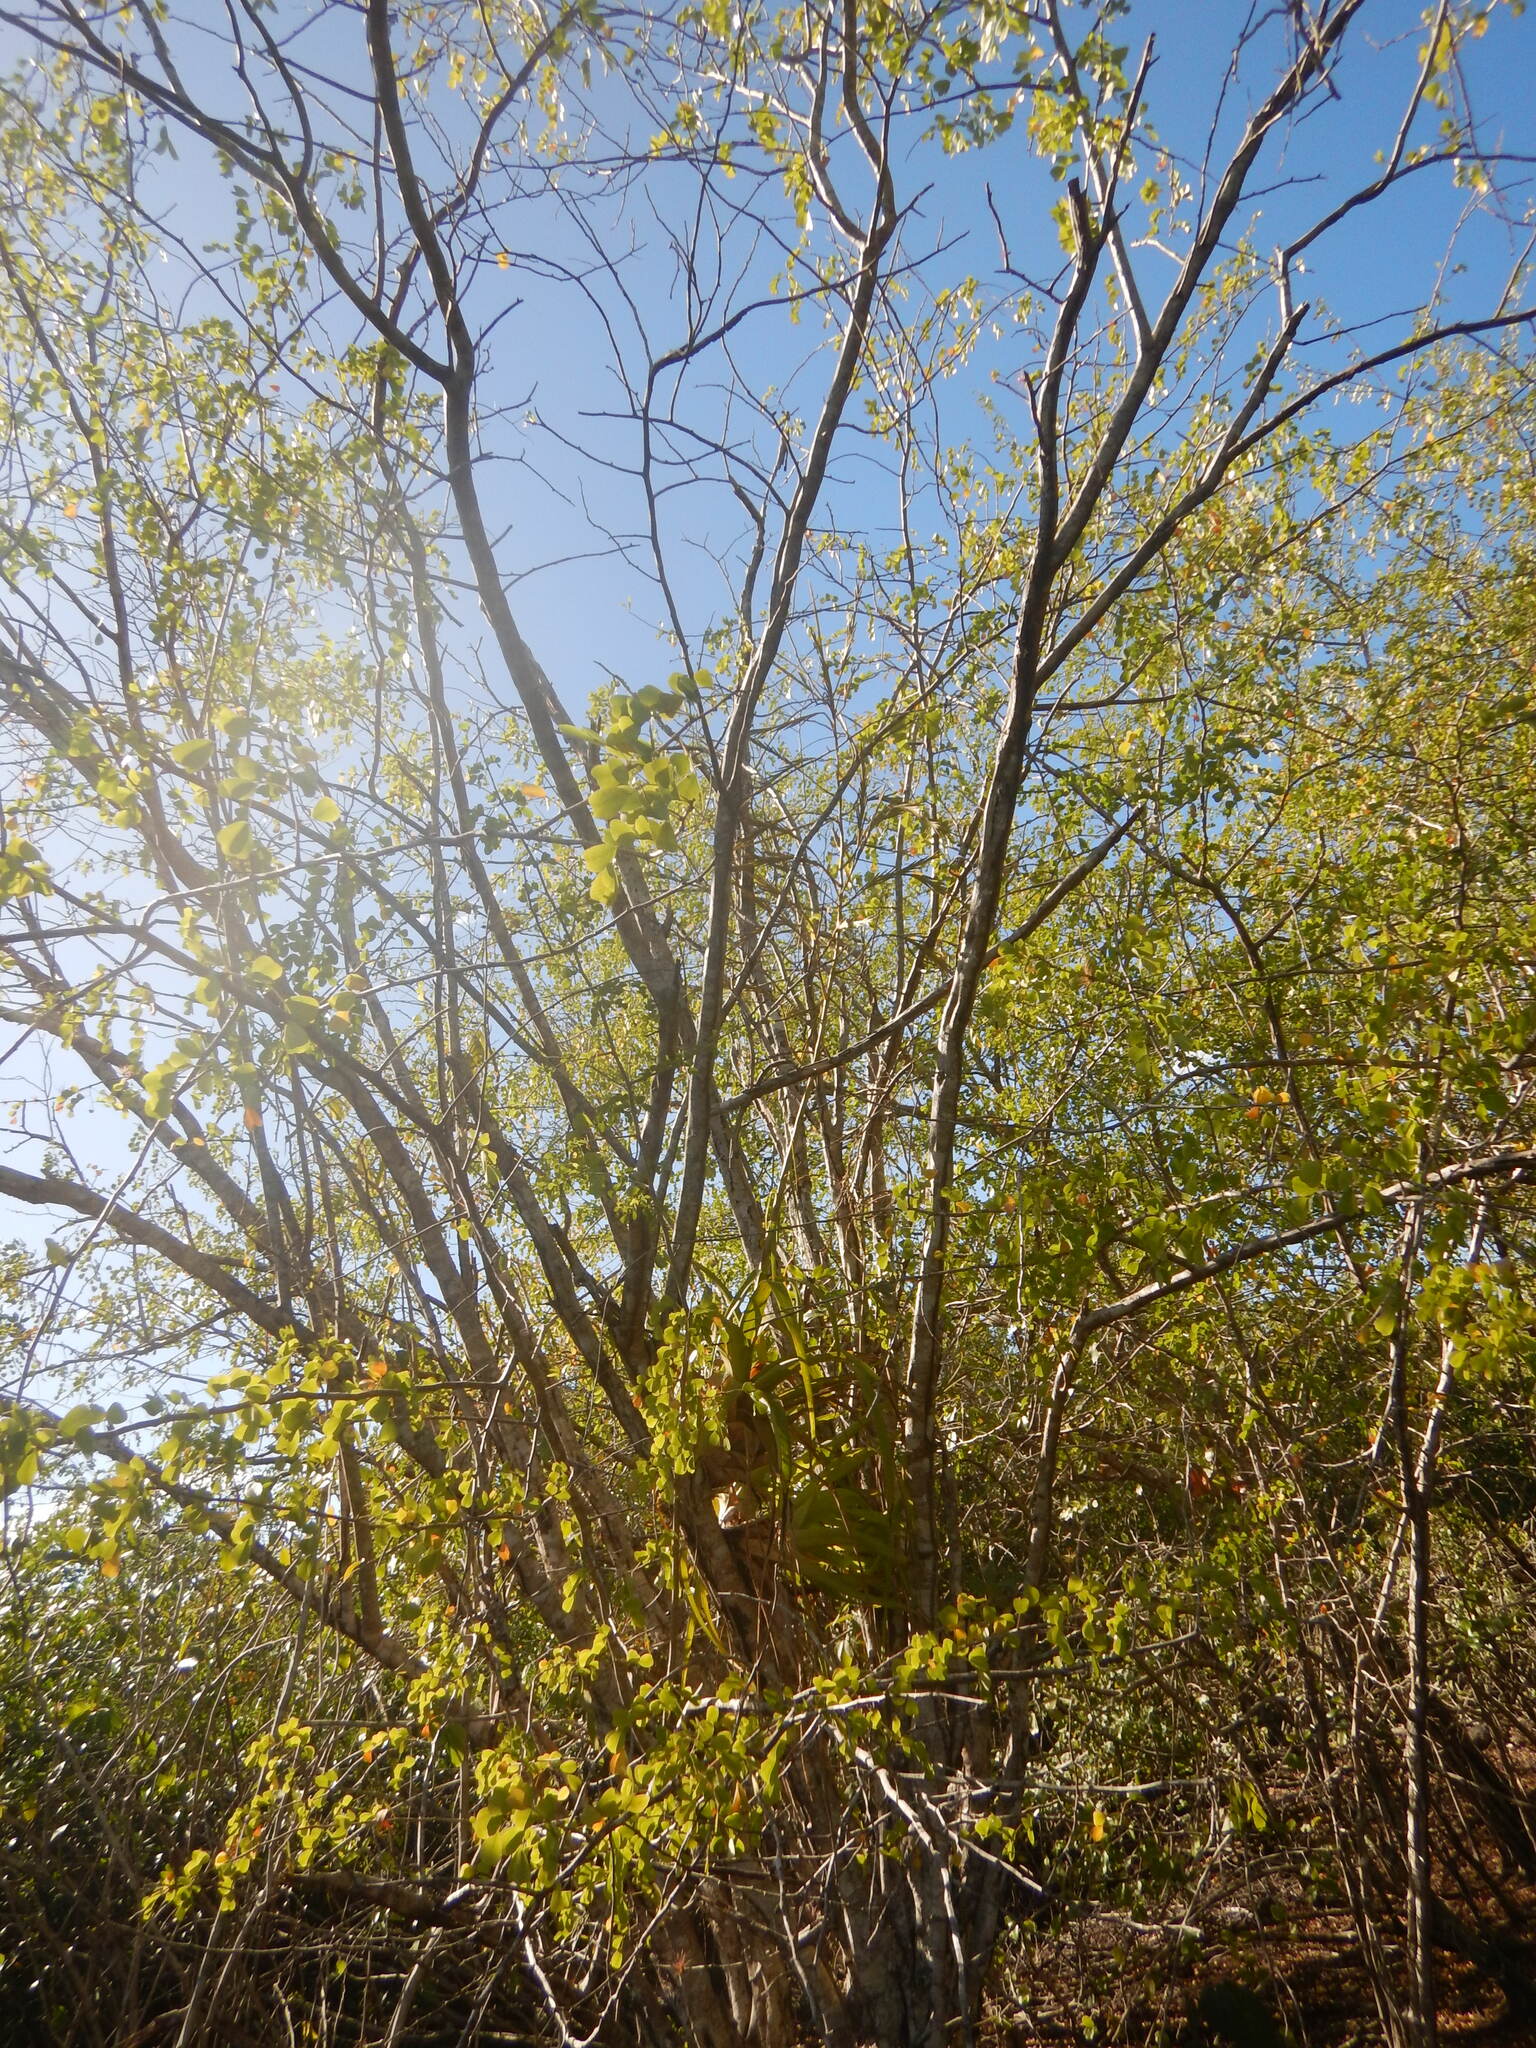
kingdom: Plantae
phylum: Tracheophyta
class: Liliopsida
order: Poales
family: Bromeliaceae
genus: Tillandsia
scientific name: Tillandsia utriculata
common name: Wild pine
